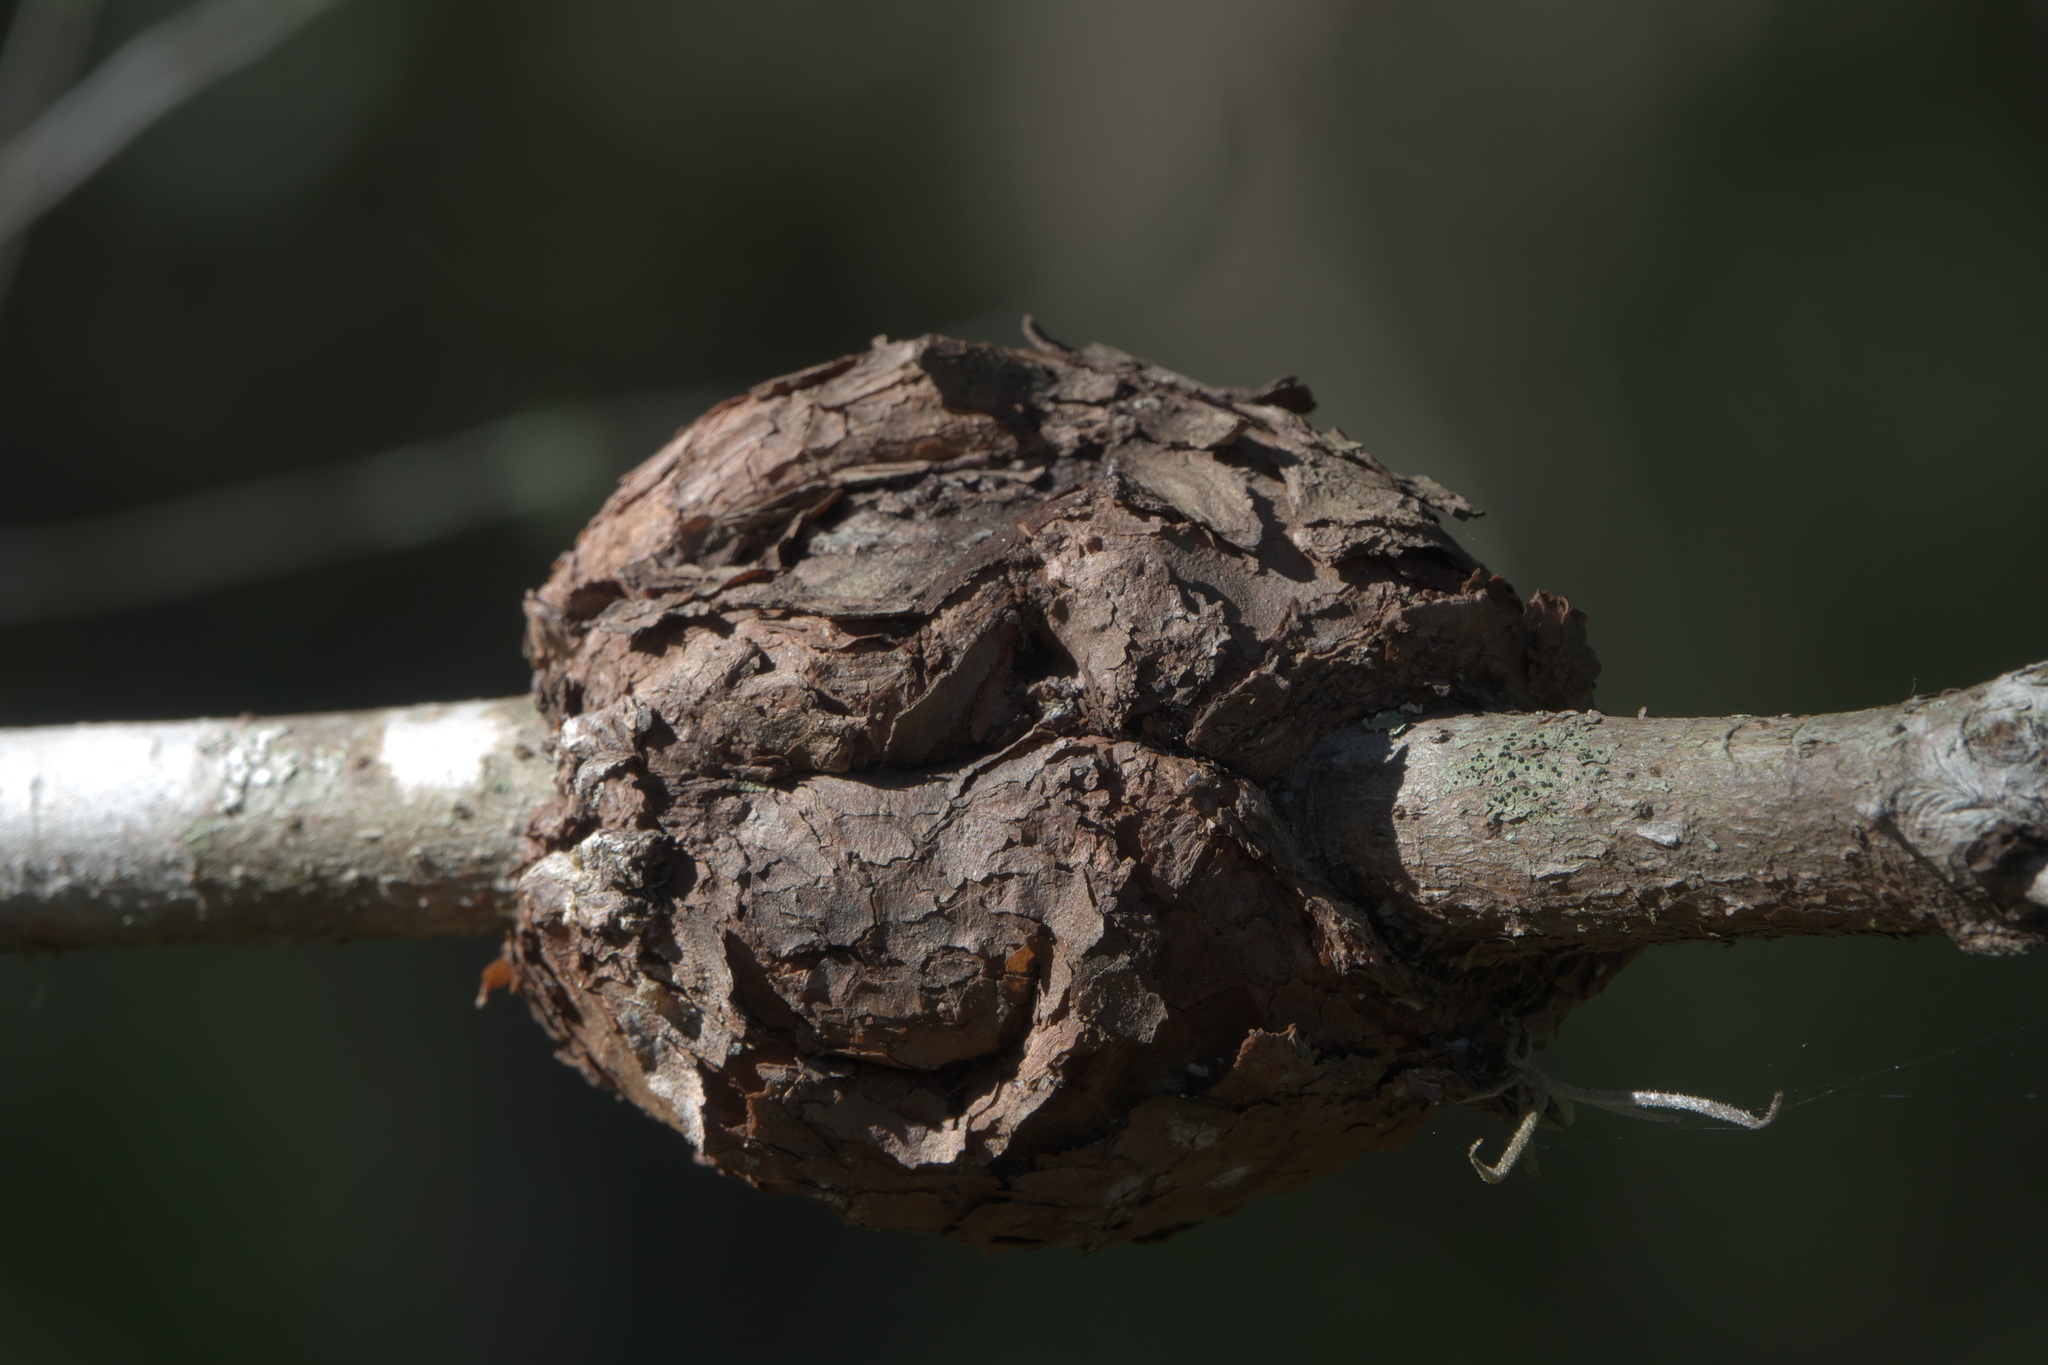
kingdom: Fungi
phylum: Basidiomycota
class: Pucciniomycetes
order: Pucciniales
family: Cronartiaceae
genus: Cronartium
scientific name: Cronartium quercuum
